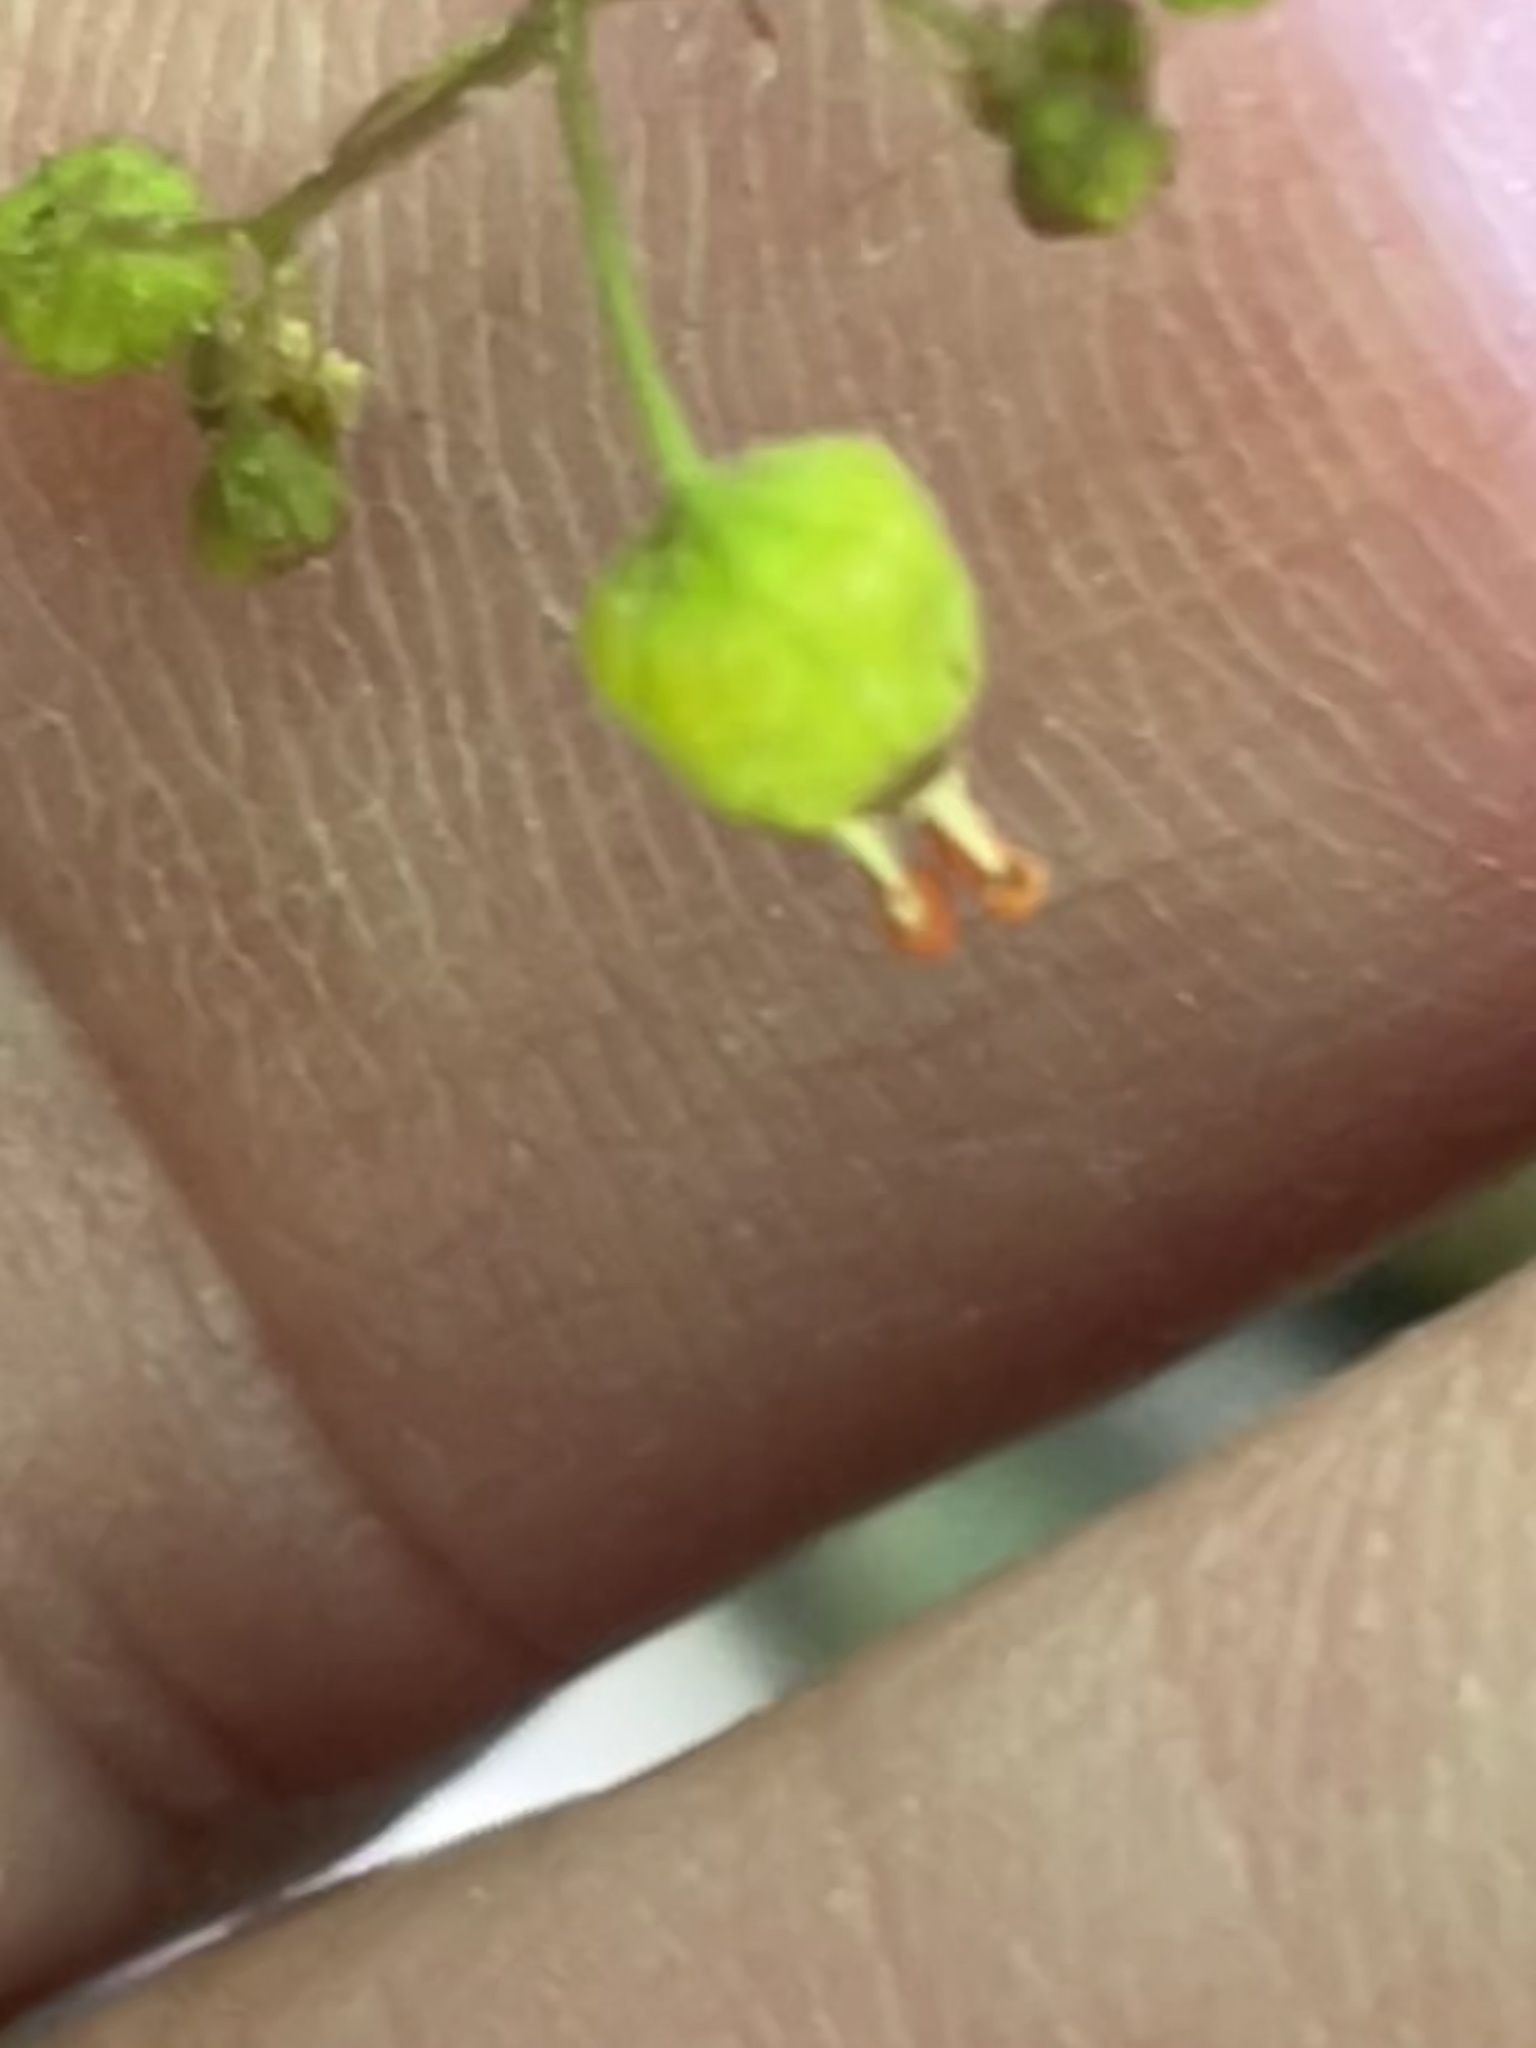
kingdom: Plantae
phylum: Tracheophyta
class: Magnoliopsida
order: Saxifragales
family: Saxifragaceae
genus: Heuchera
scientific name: Heuchera caroliniana
